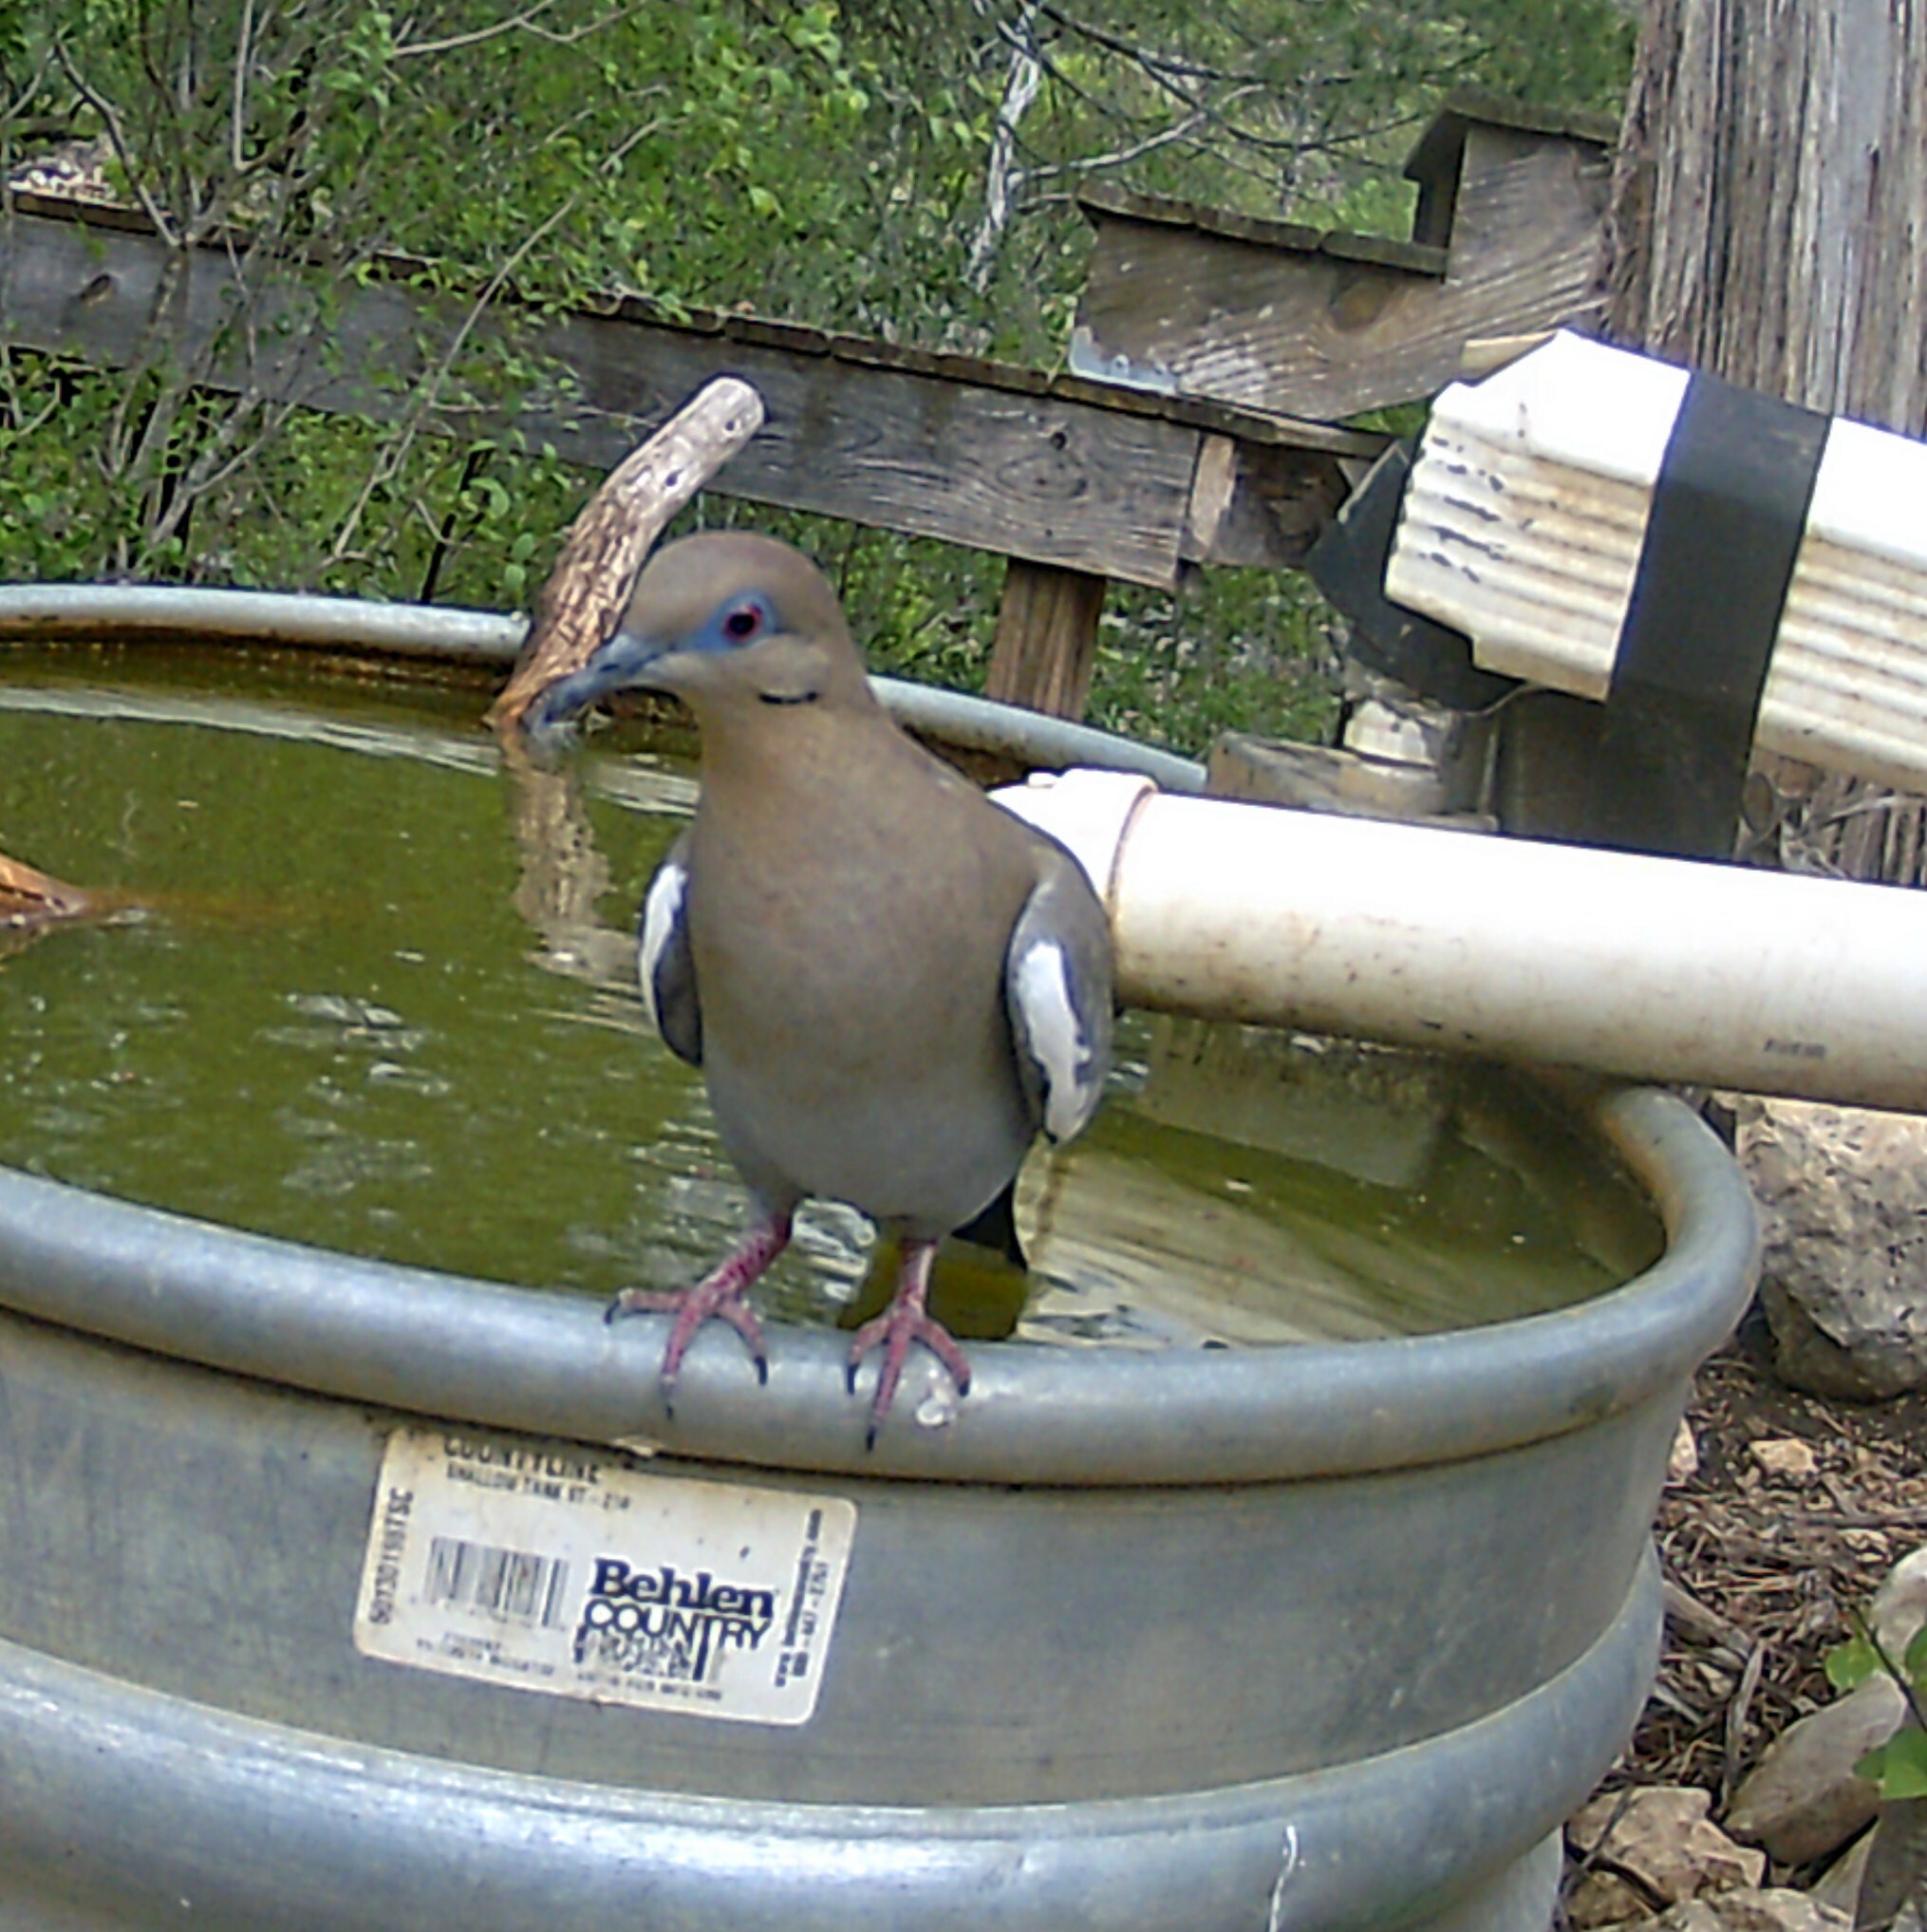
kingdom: Animalia
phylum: Chordata
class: Aves
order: Columbiformes
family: Columbidae
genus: Zenaida
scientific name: Zenaida asiatica
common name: White-winged dove
